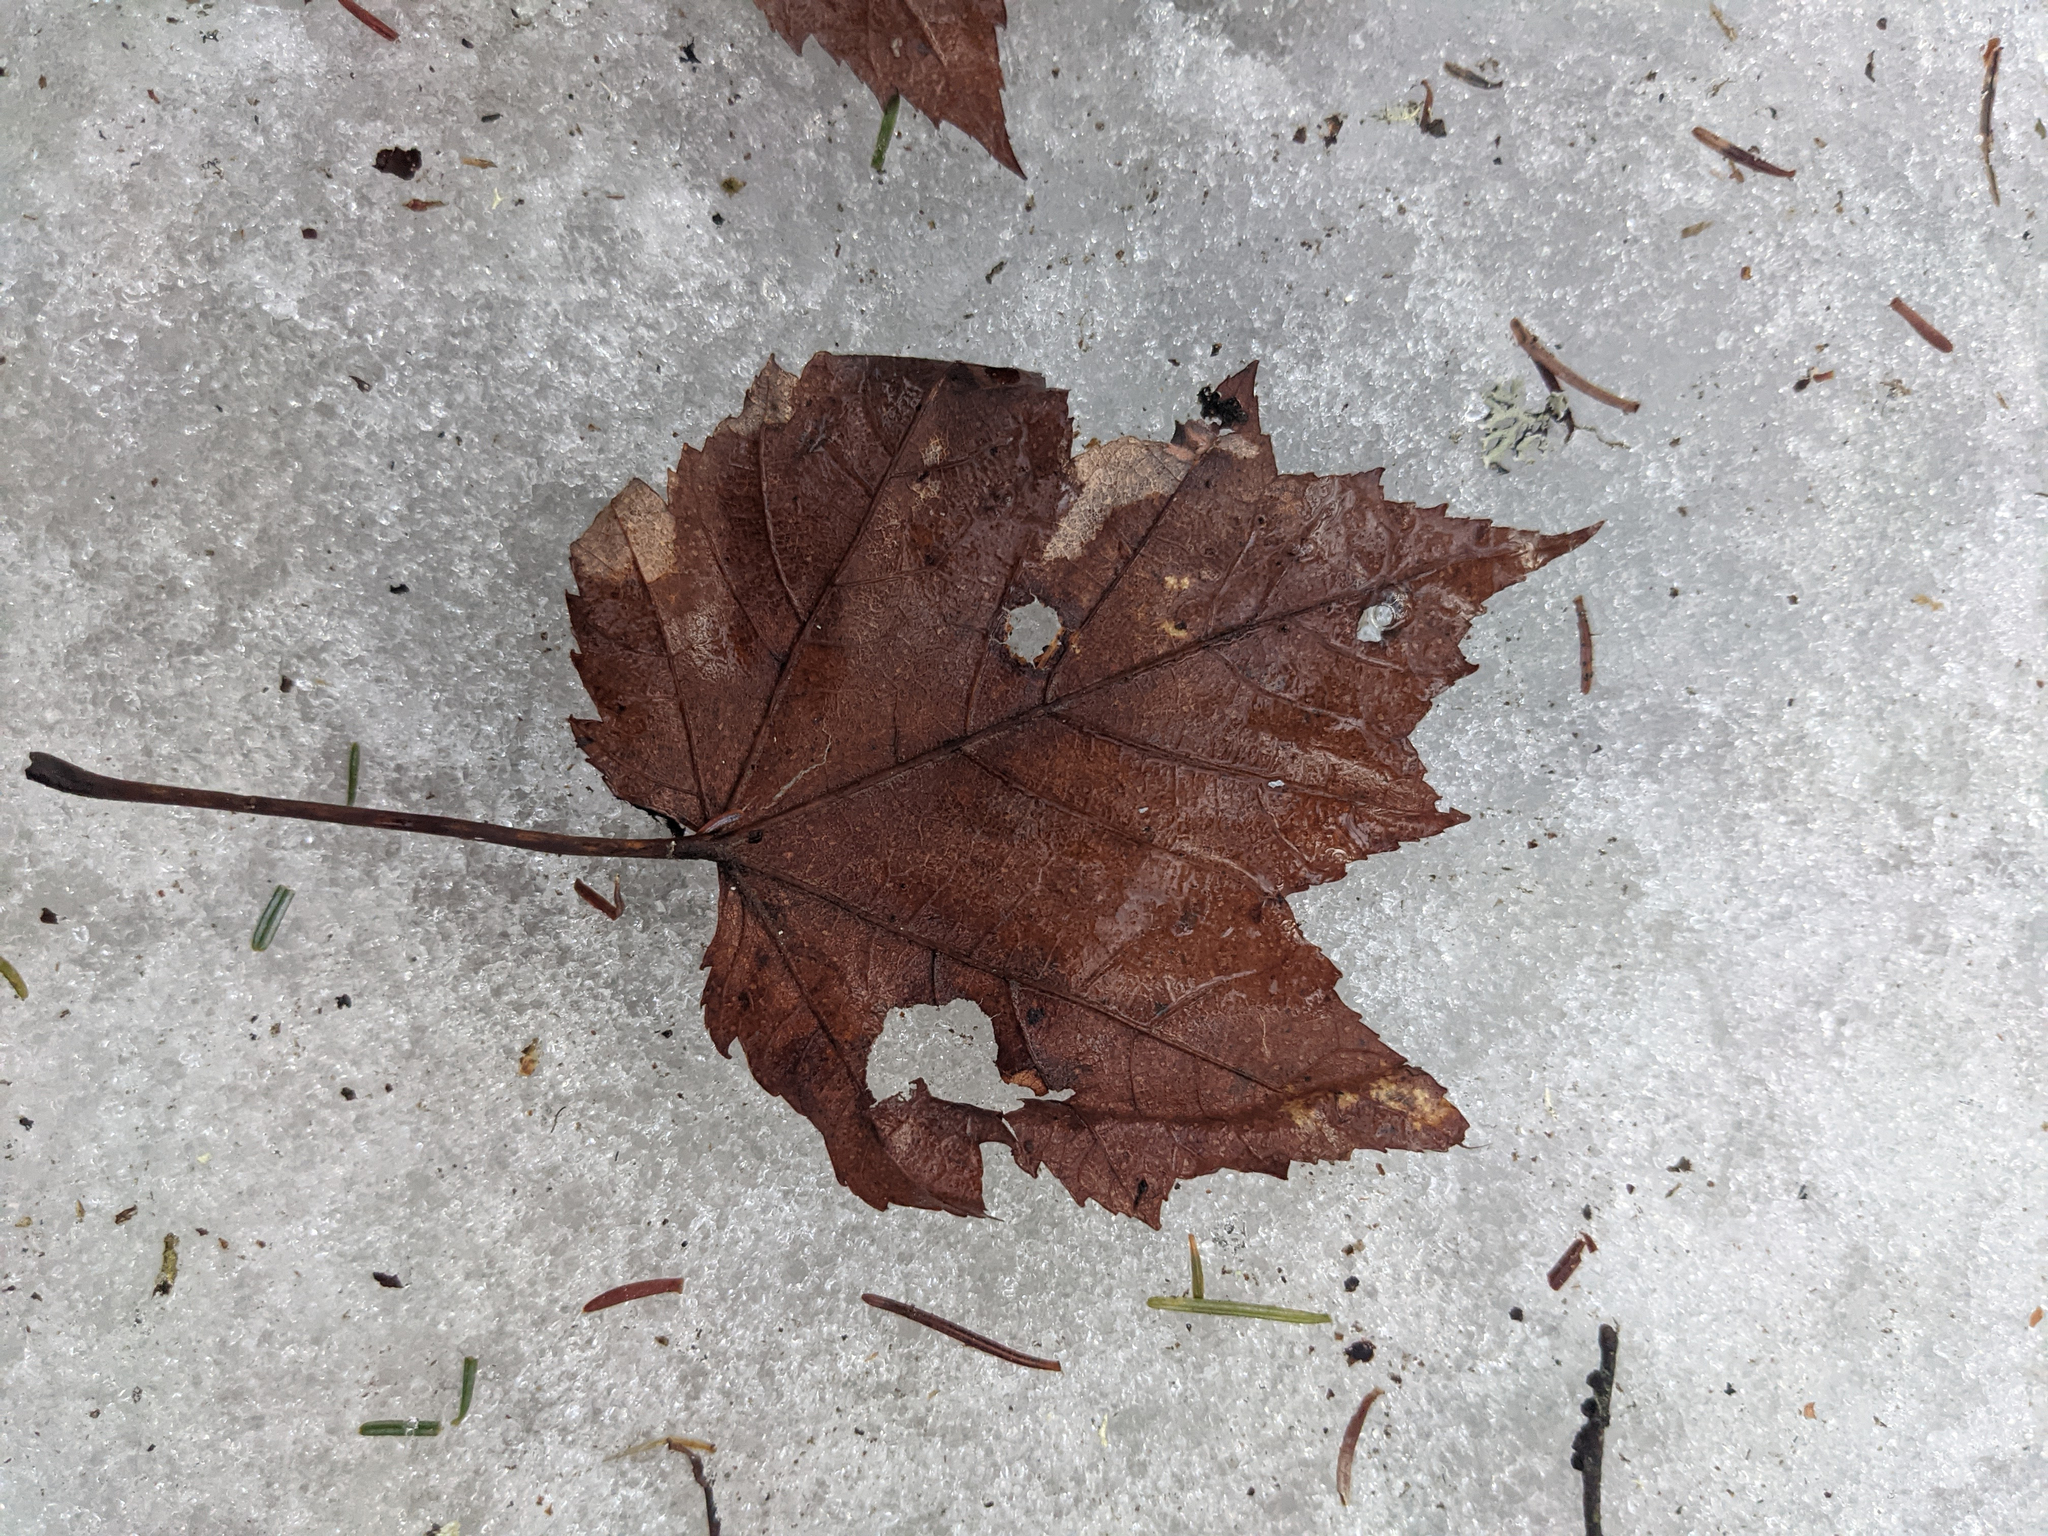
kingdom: Plantae
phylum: Tracheophyta
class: Magnoliopsida
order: Sapindales
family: Sapindaceae
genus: Acer
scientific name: Acer rubrum
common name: Red maple
